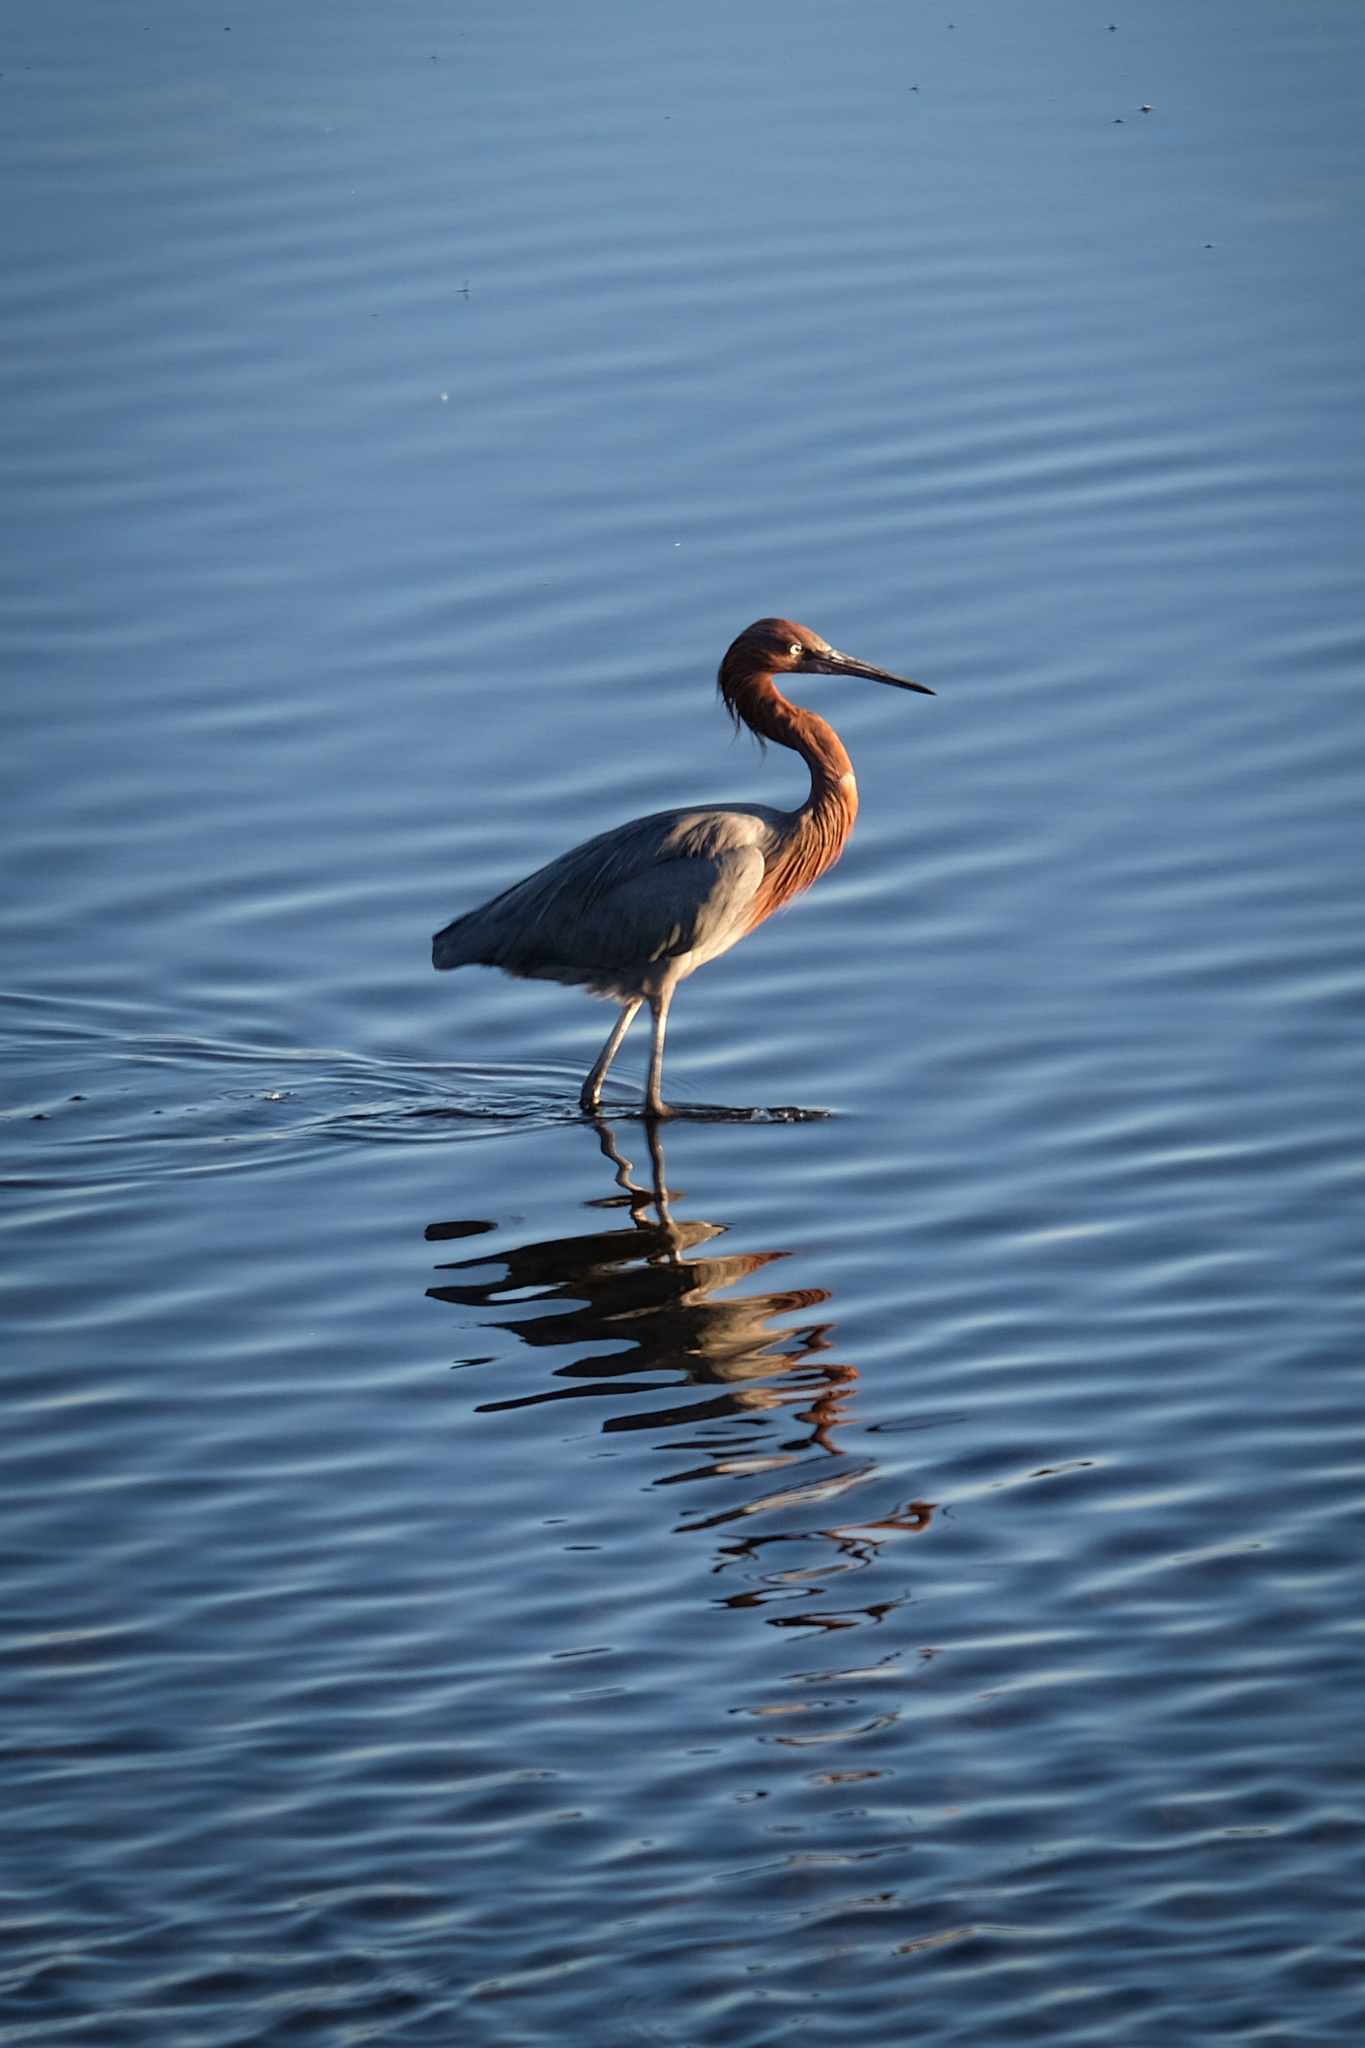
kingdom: Animalia
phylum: Chordata
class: Aves
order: Pelecaniformes
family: Ardeidae
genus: Egretta
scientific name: Egretta rufescens
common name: Reddish egret
